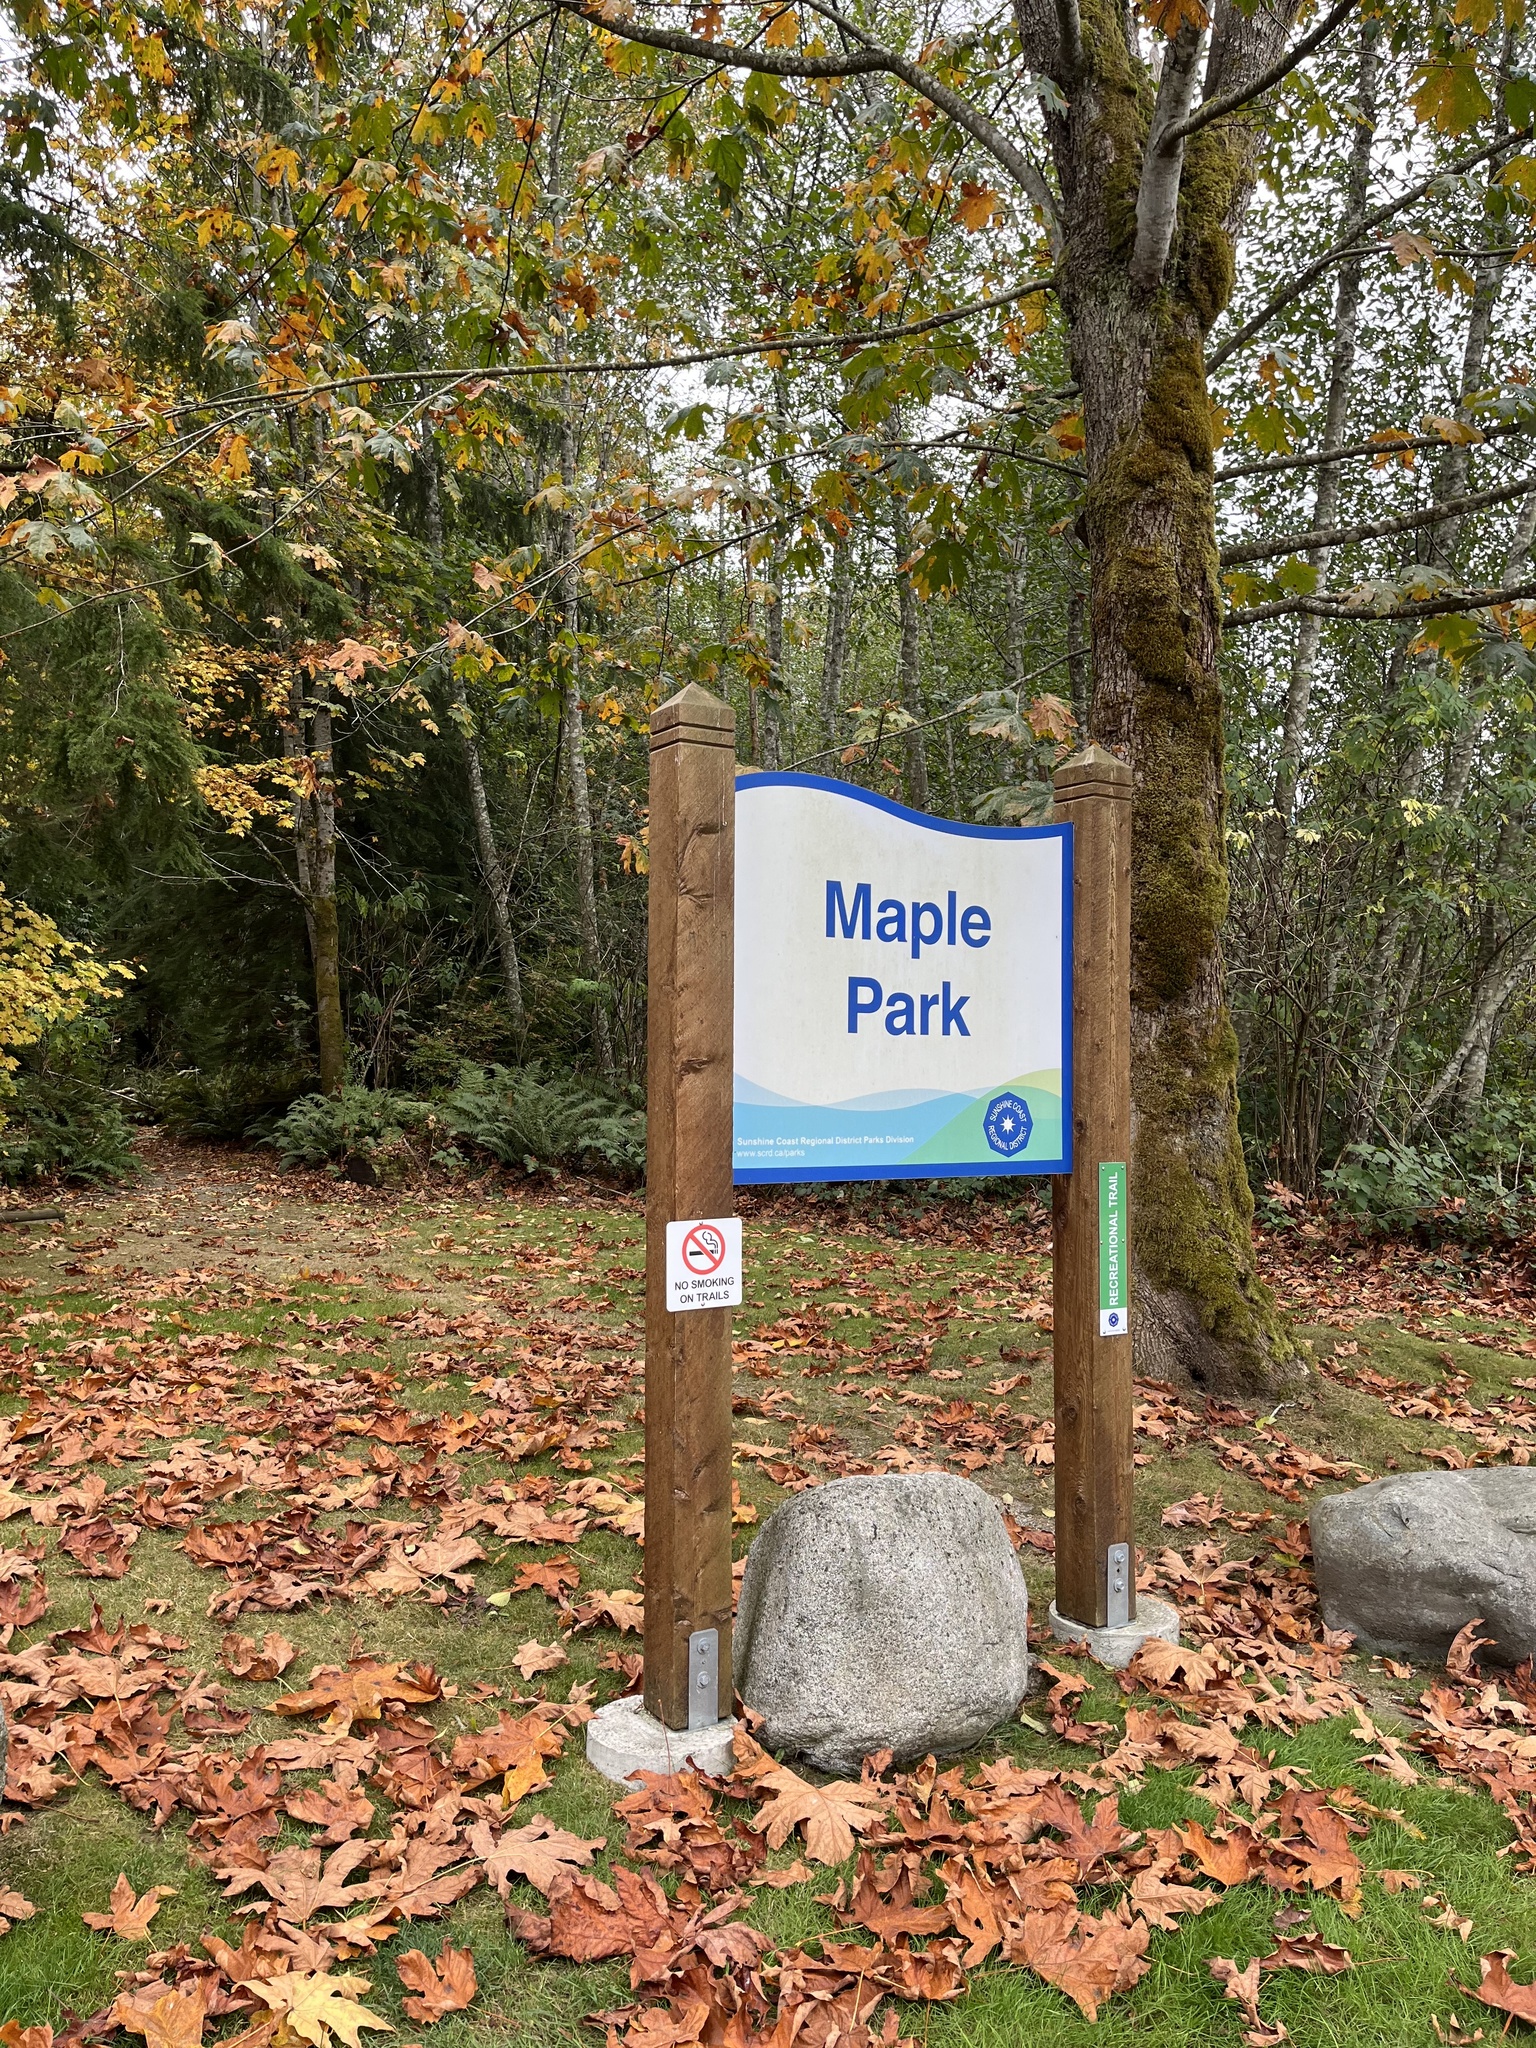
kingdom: Plantae
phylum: Tracheophyta
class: Magnoliopsida
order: Sapindales
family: Sapindaceae
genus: Acer
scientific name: Acer macrophyllum
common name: Oregon maple
